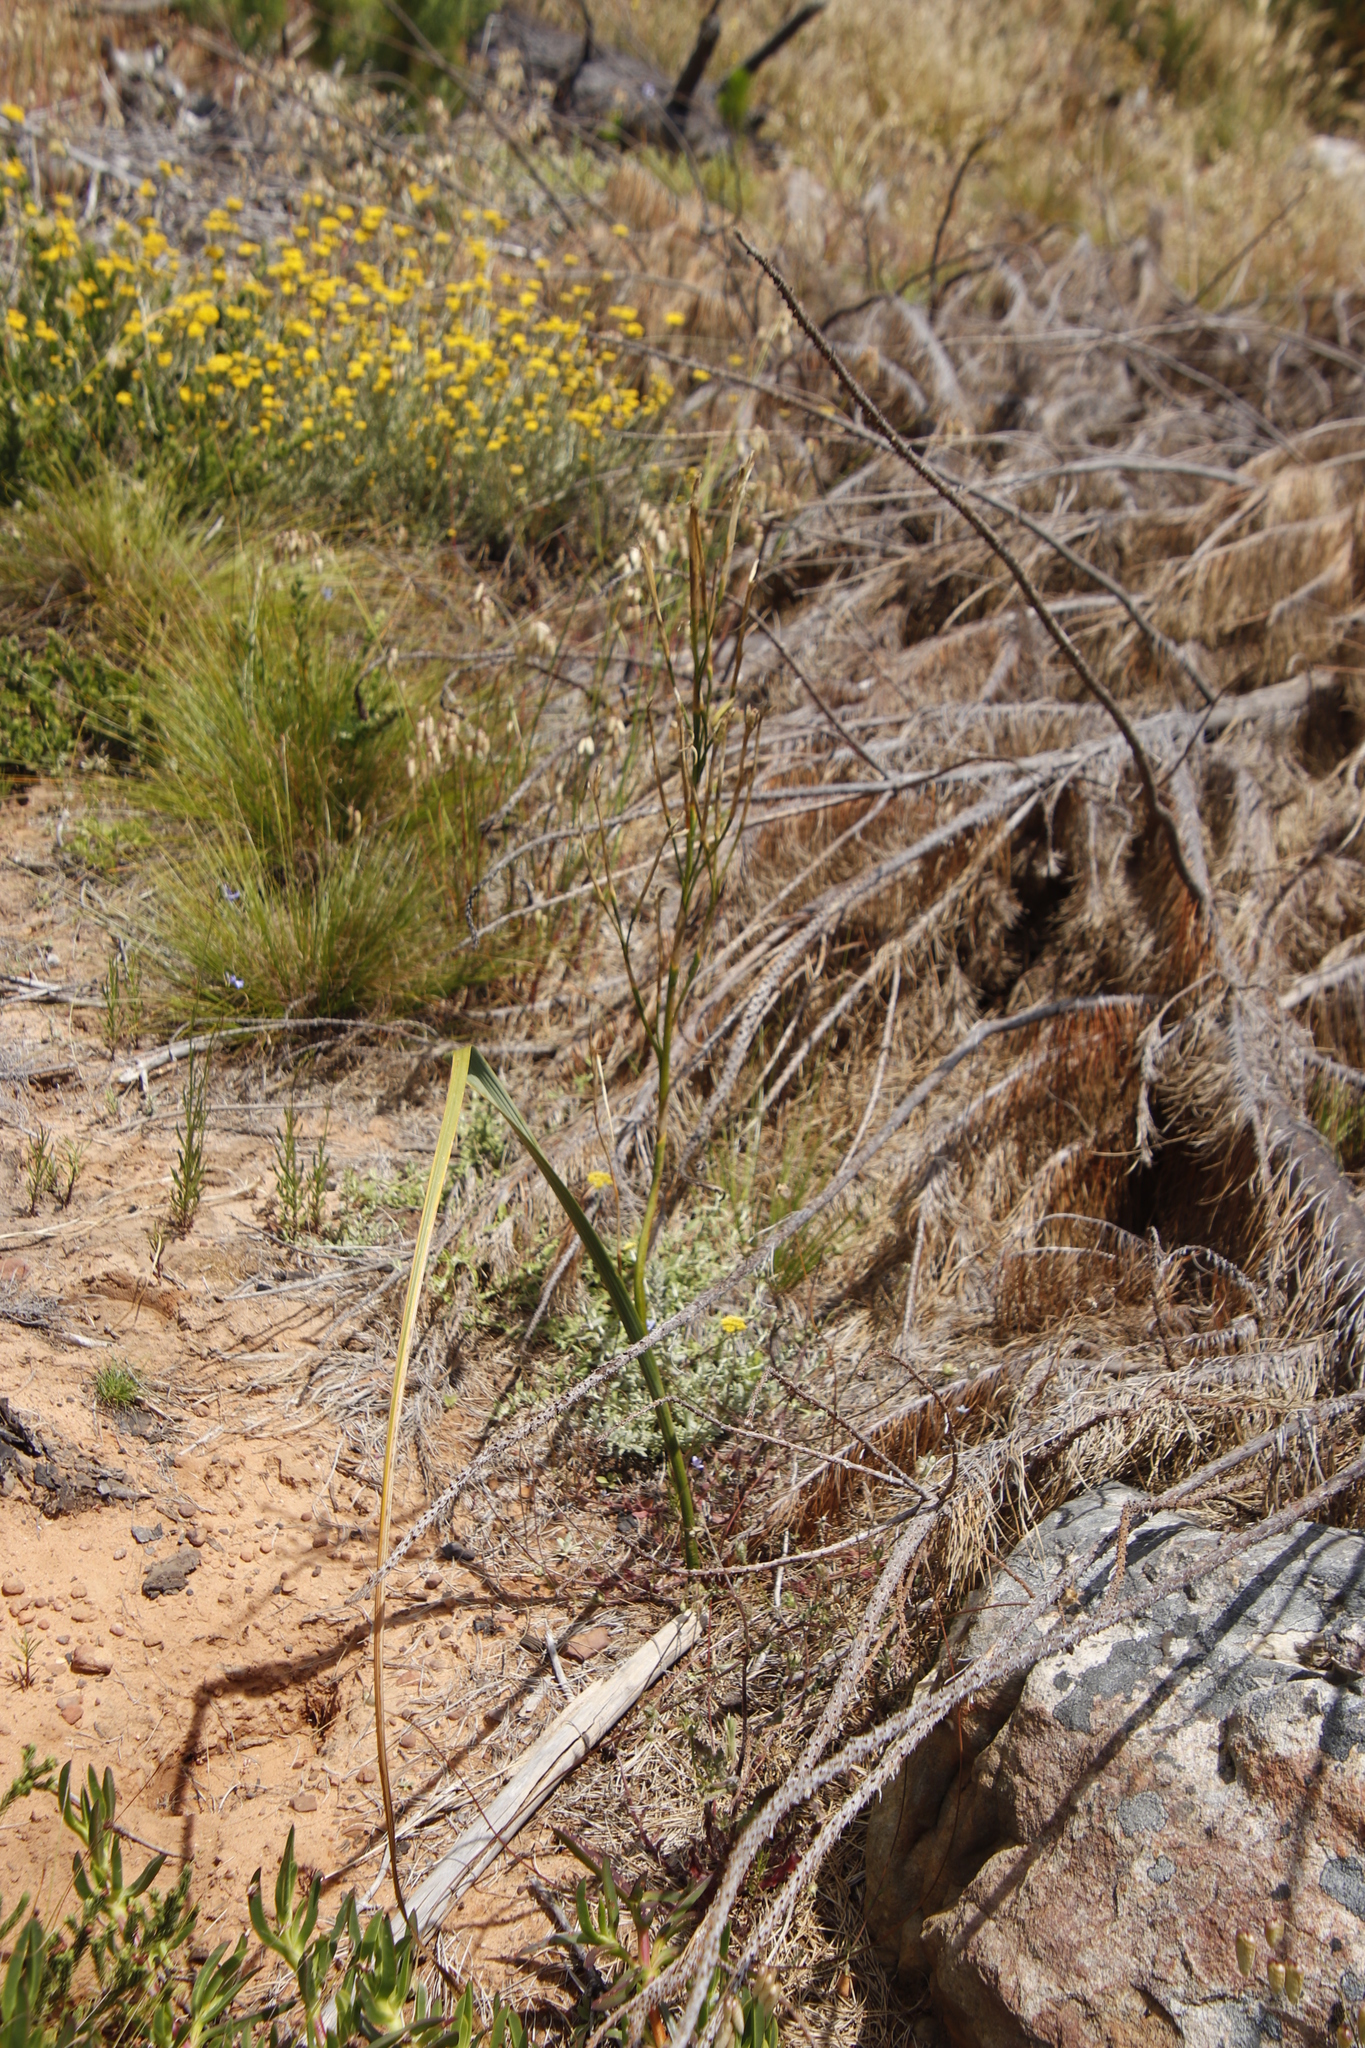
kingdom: Plantae
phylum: Tracheophyta
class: Liliopsida
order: Asparagales
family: Iridaceae
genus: Moraea
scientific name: Moraea ramosissima
